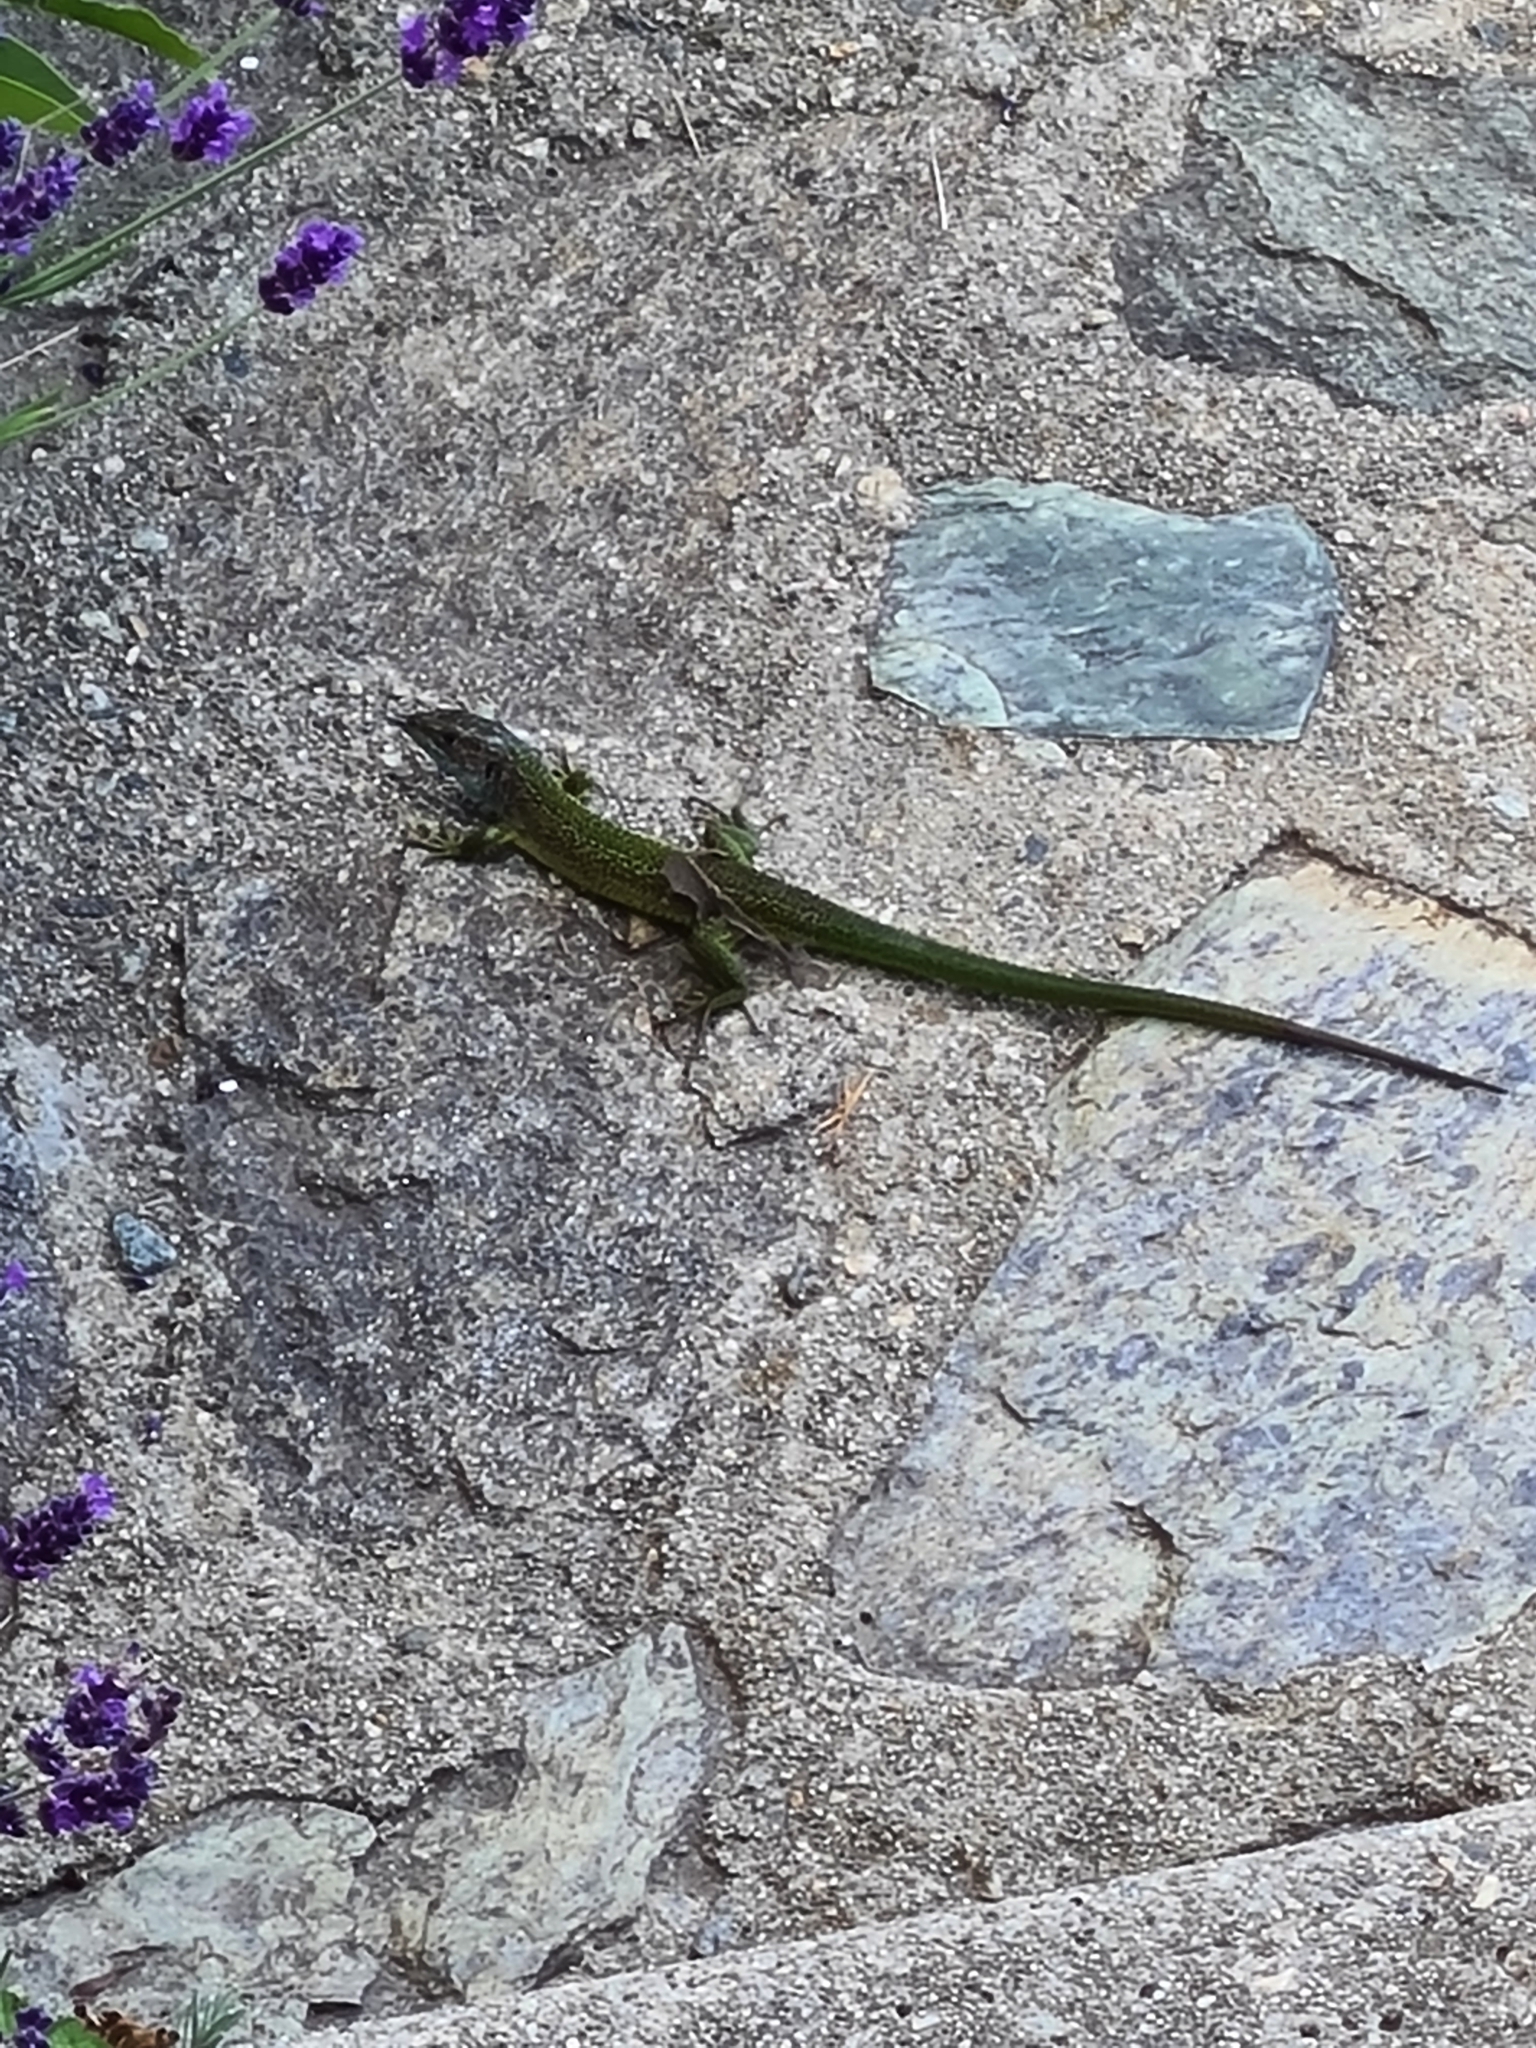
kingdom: Animalia
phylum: Chordata
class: Squamata
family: Lacertidae
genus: Lacerta
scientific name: Lacerta bilineata
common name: Western green lizard
